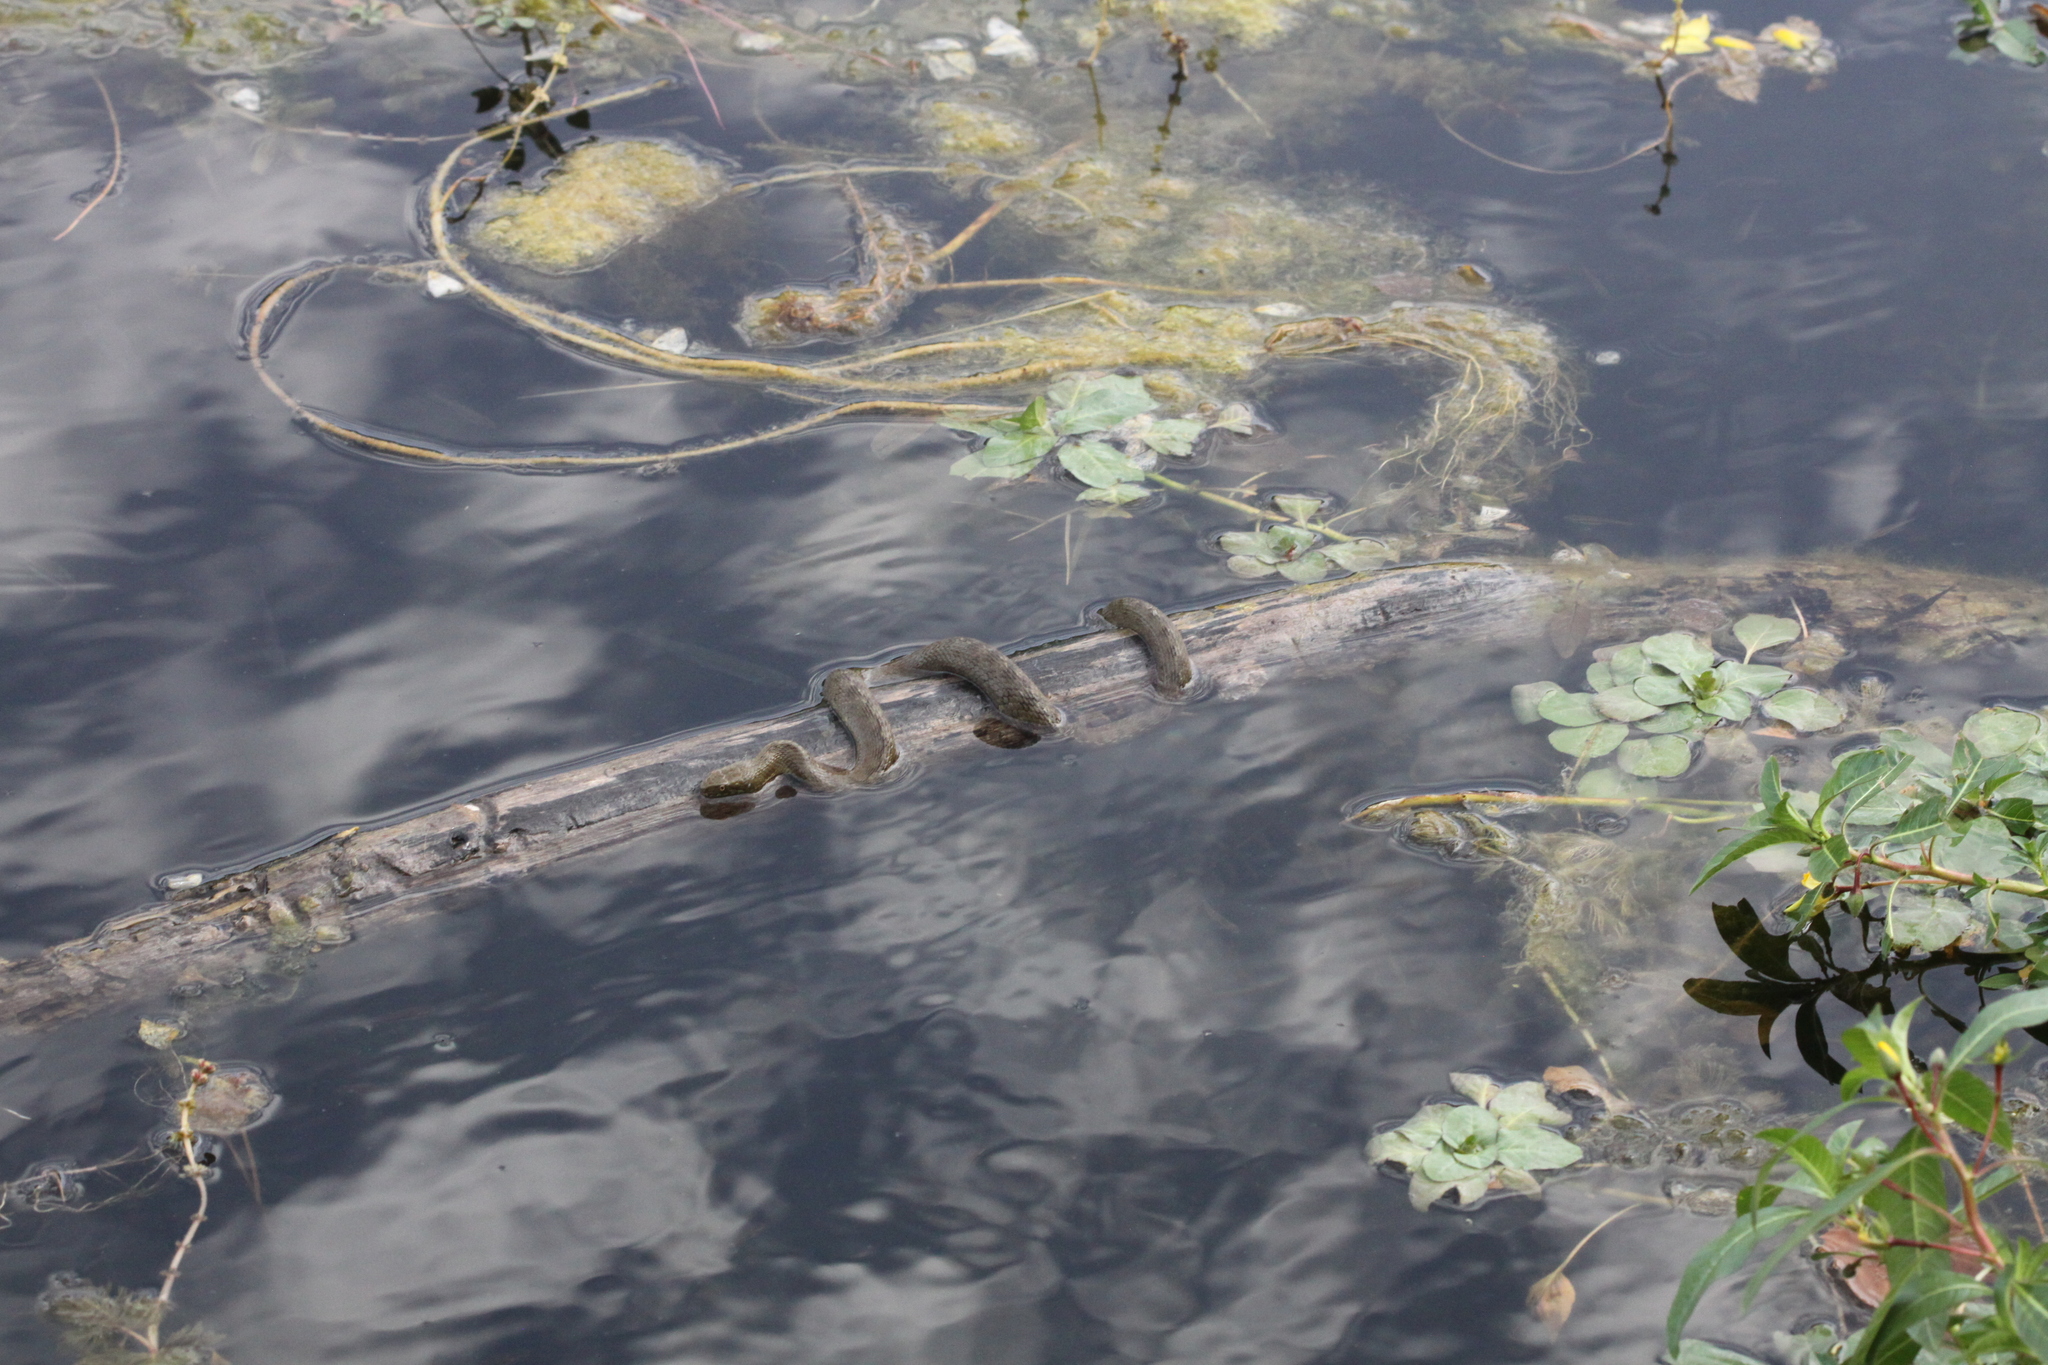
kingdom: Animalia
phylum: Chordata
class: Squamata
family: Colubridae
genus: Natrix
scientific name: Natrix maura
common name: Viperine water snake
